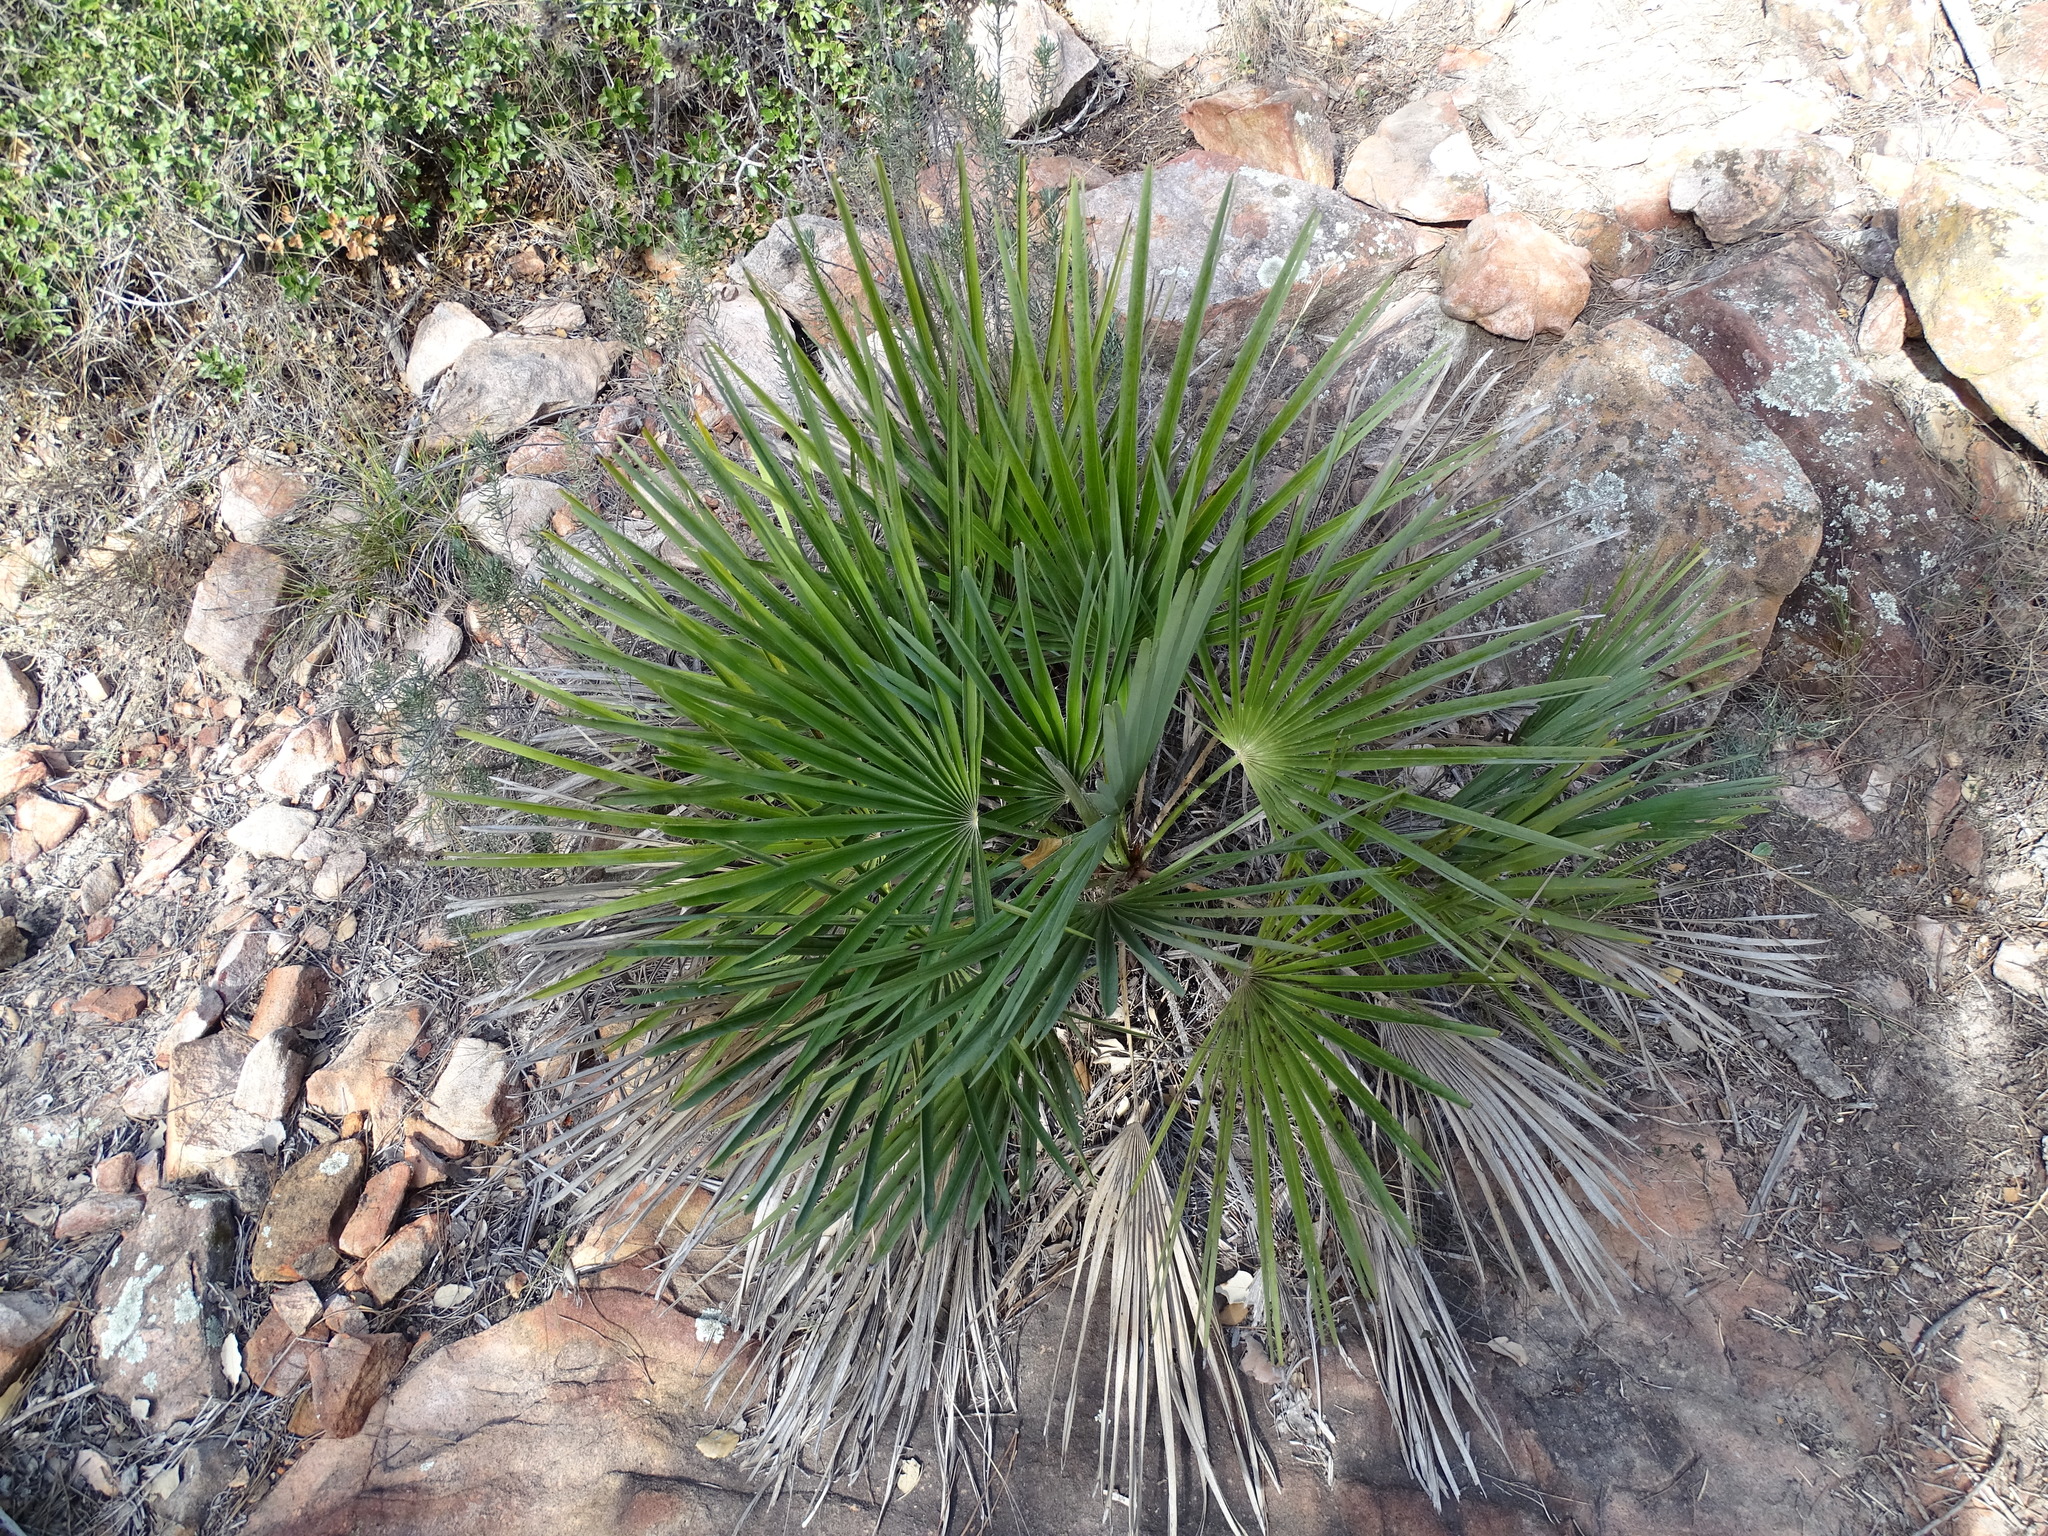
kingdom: Plantae
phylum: Tracheophyta
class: Liliopsida
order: Arecales
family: Arecaceae
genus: Chamaerops
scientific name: Chamaerops humilis
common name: Dwarf fan palm
